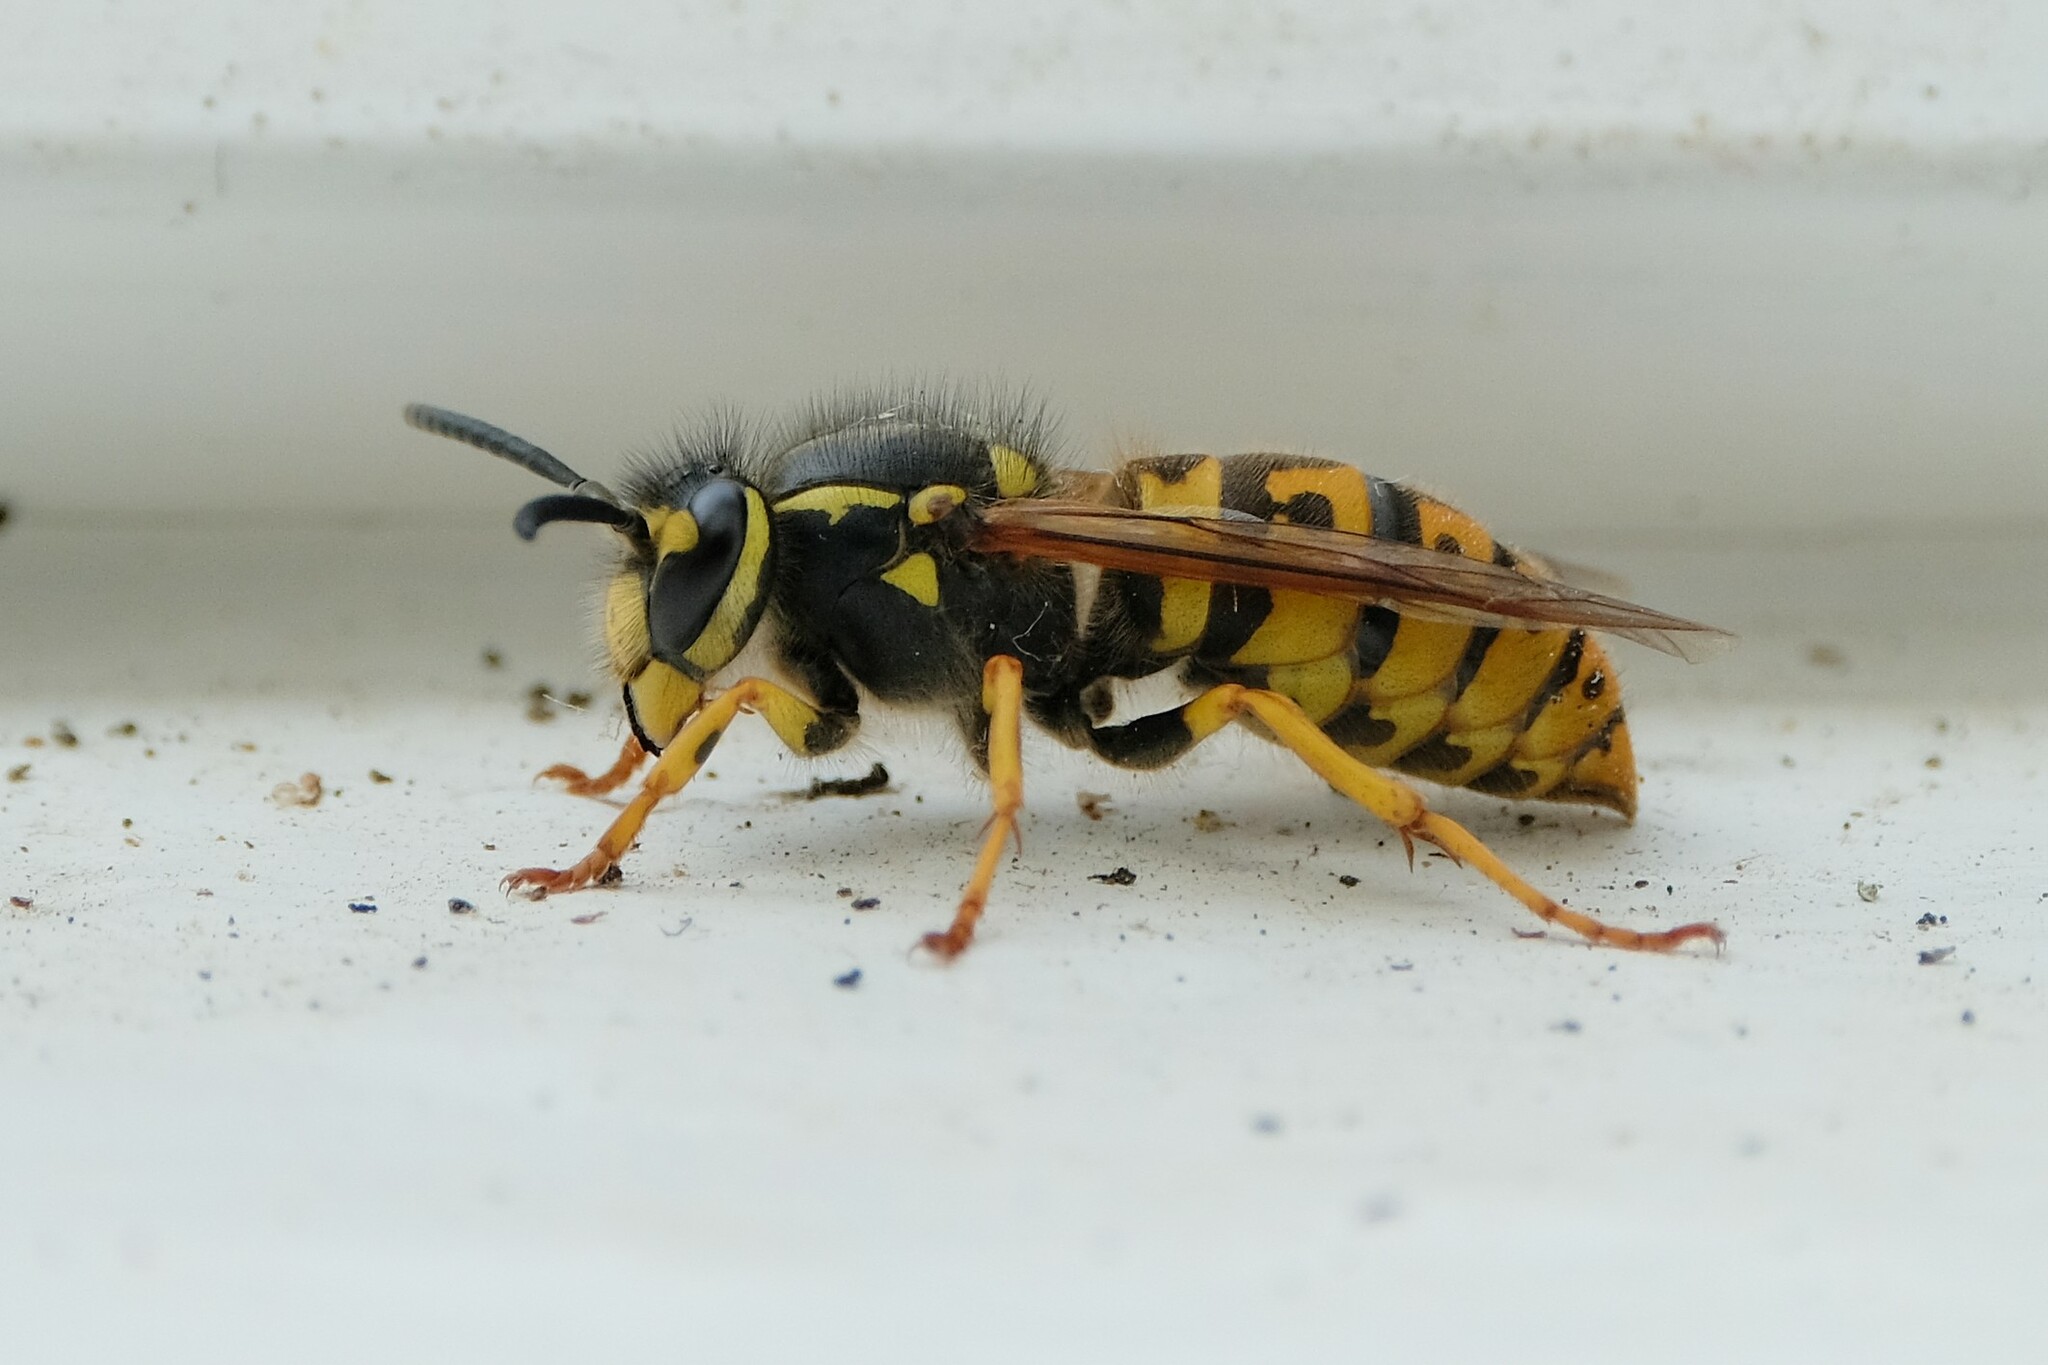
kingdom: Animalia
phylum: Arthropoda
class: Insecta
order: Hymenoptera
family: Vespidae
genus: Vespula
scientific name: Vespula germanica
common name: German wasp
